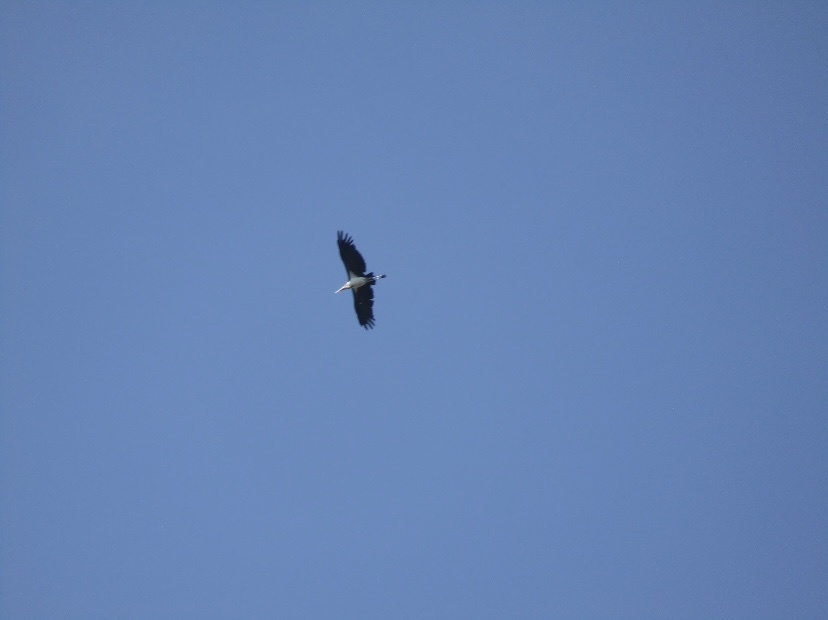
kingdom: Animalia
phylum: Chordata
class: Aves
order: Ciconiiformes
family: Ciconiidae
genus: Leptoptilos
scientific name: Leptoptilos crumenifer
